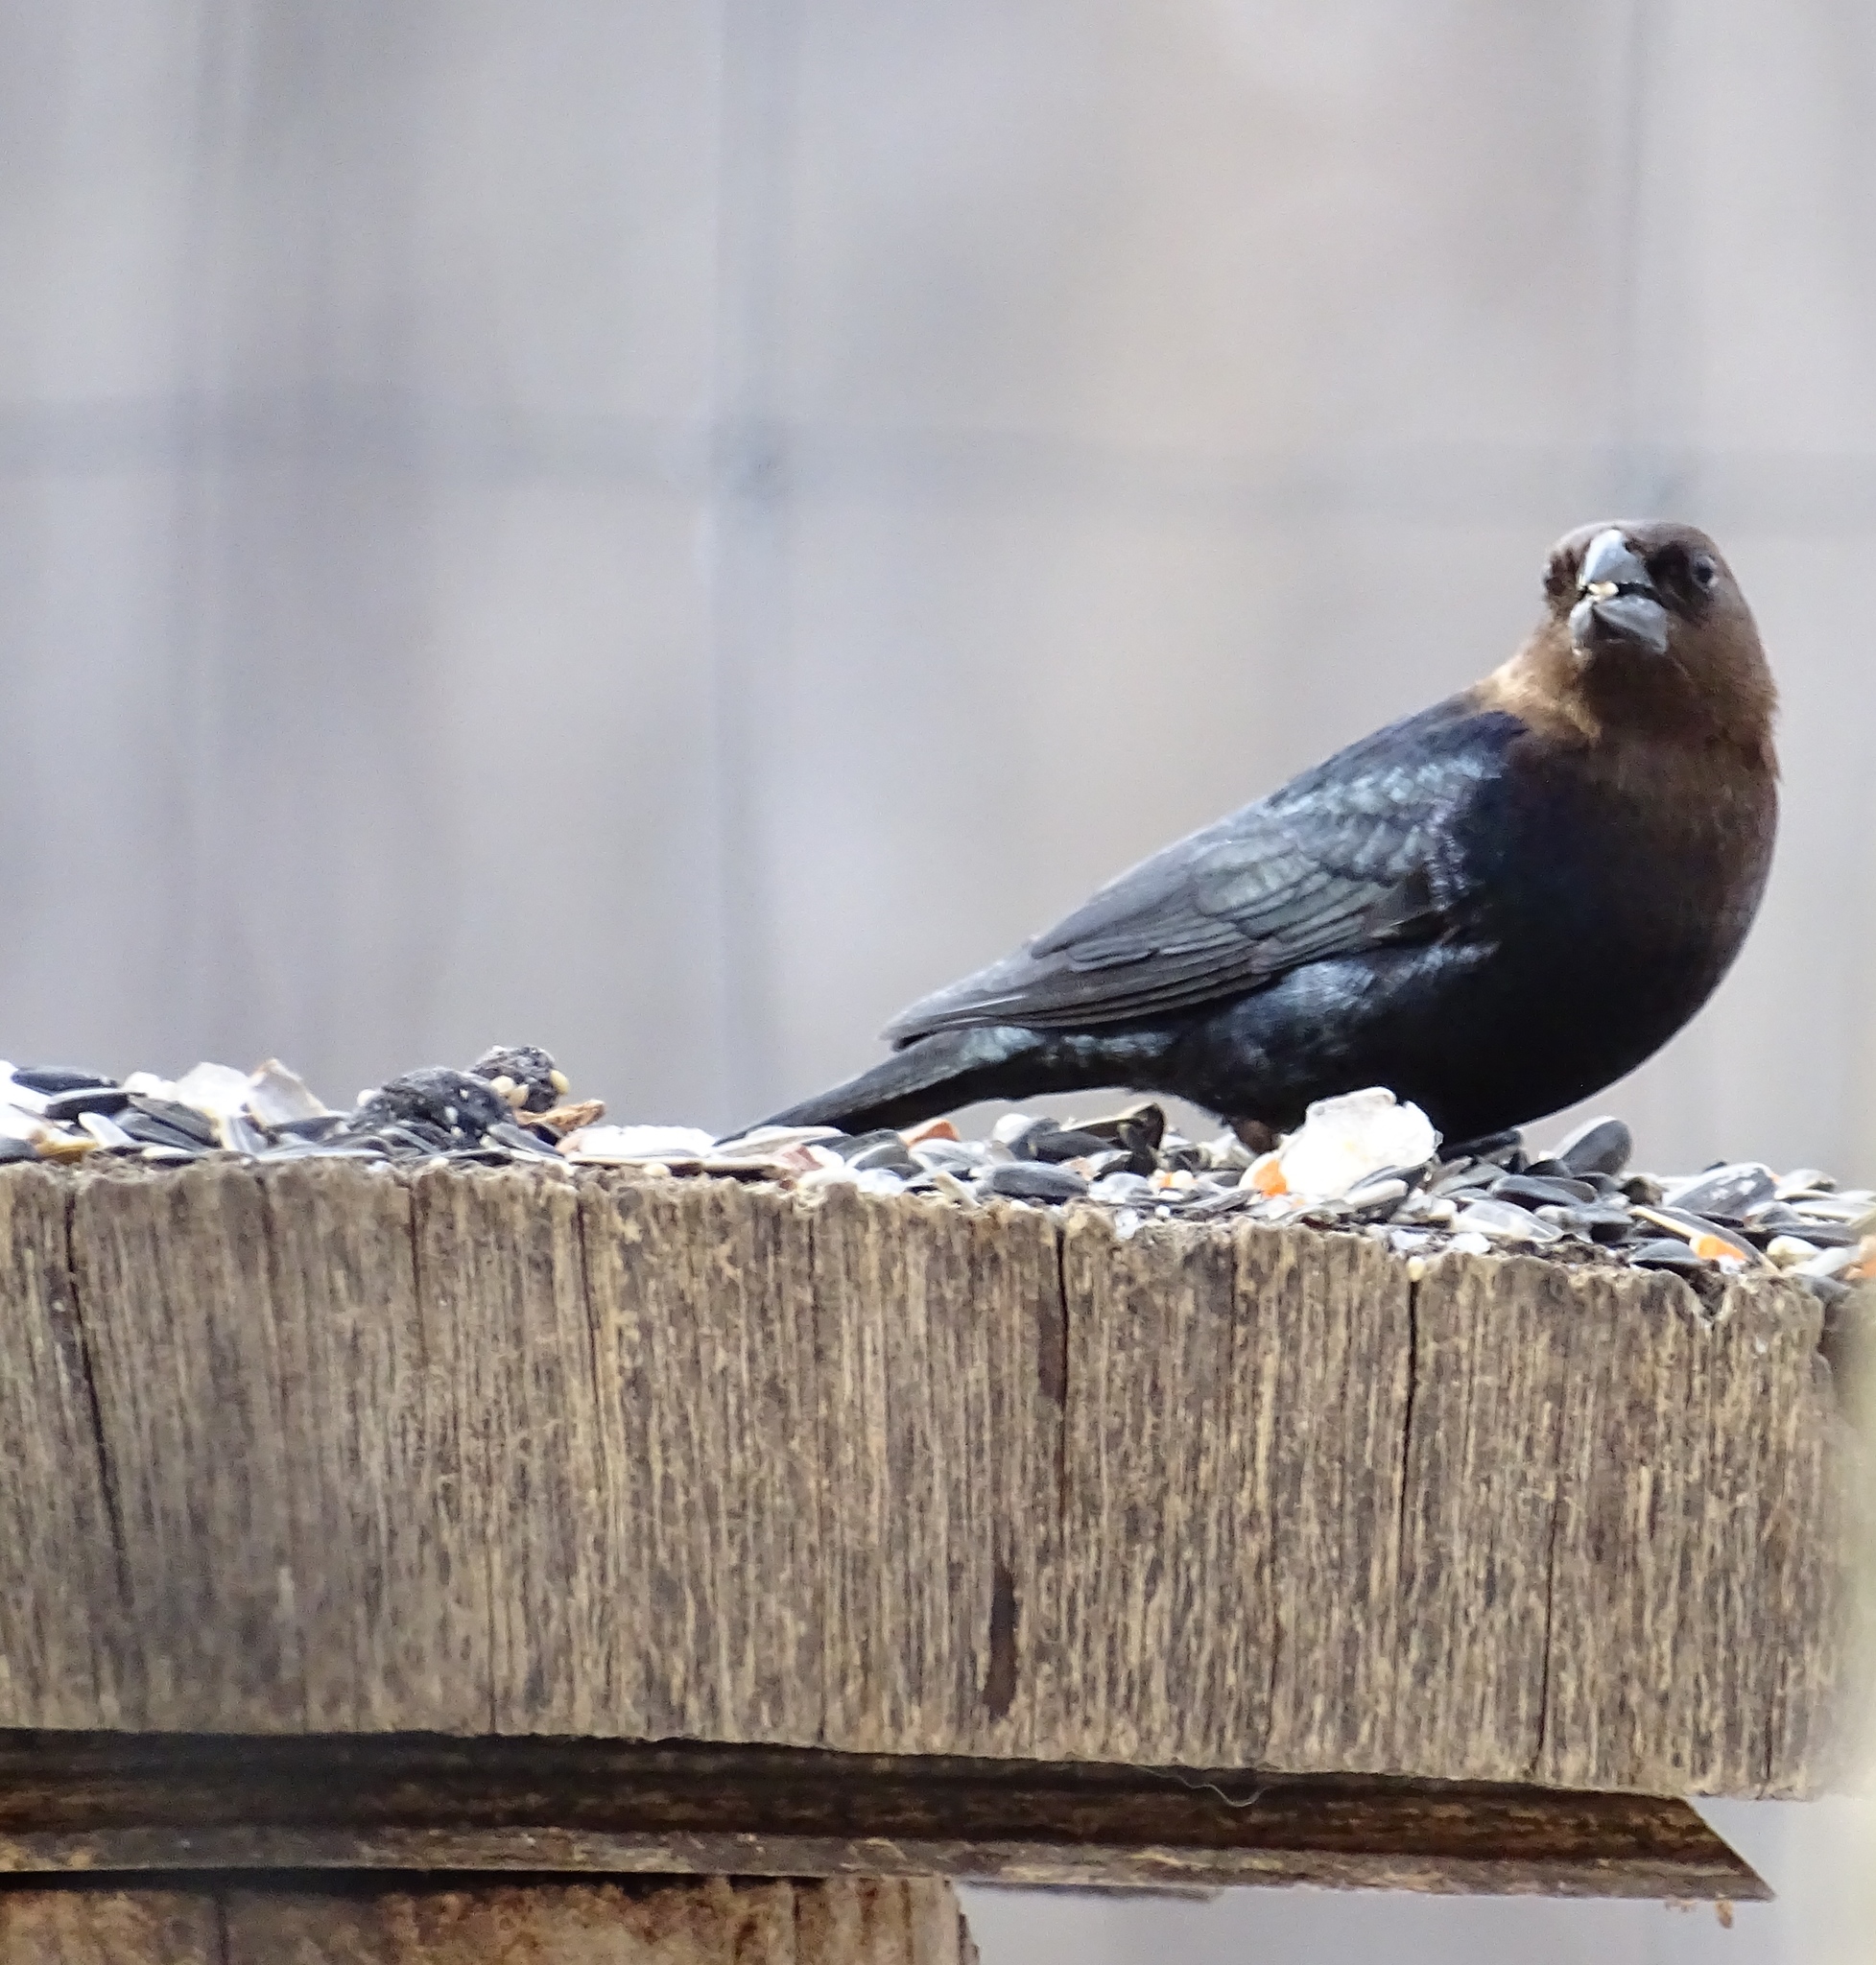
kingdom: Animalia
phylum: Chordata
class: Aves
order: Passeriformes
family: Icteridae
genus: Molothrus
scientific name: Molothrus ater
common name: Brown-headed cowbird
